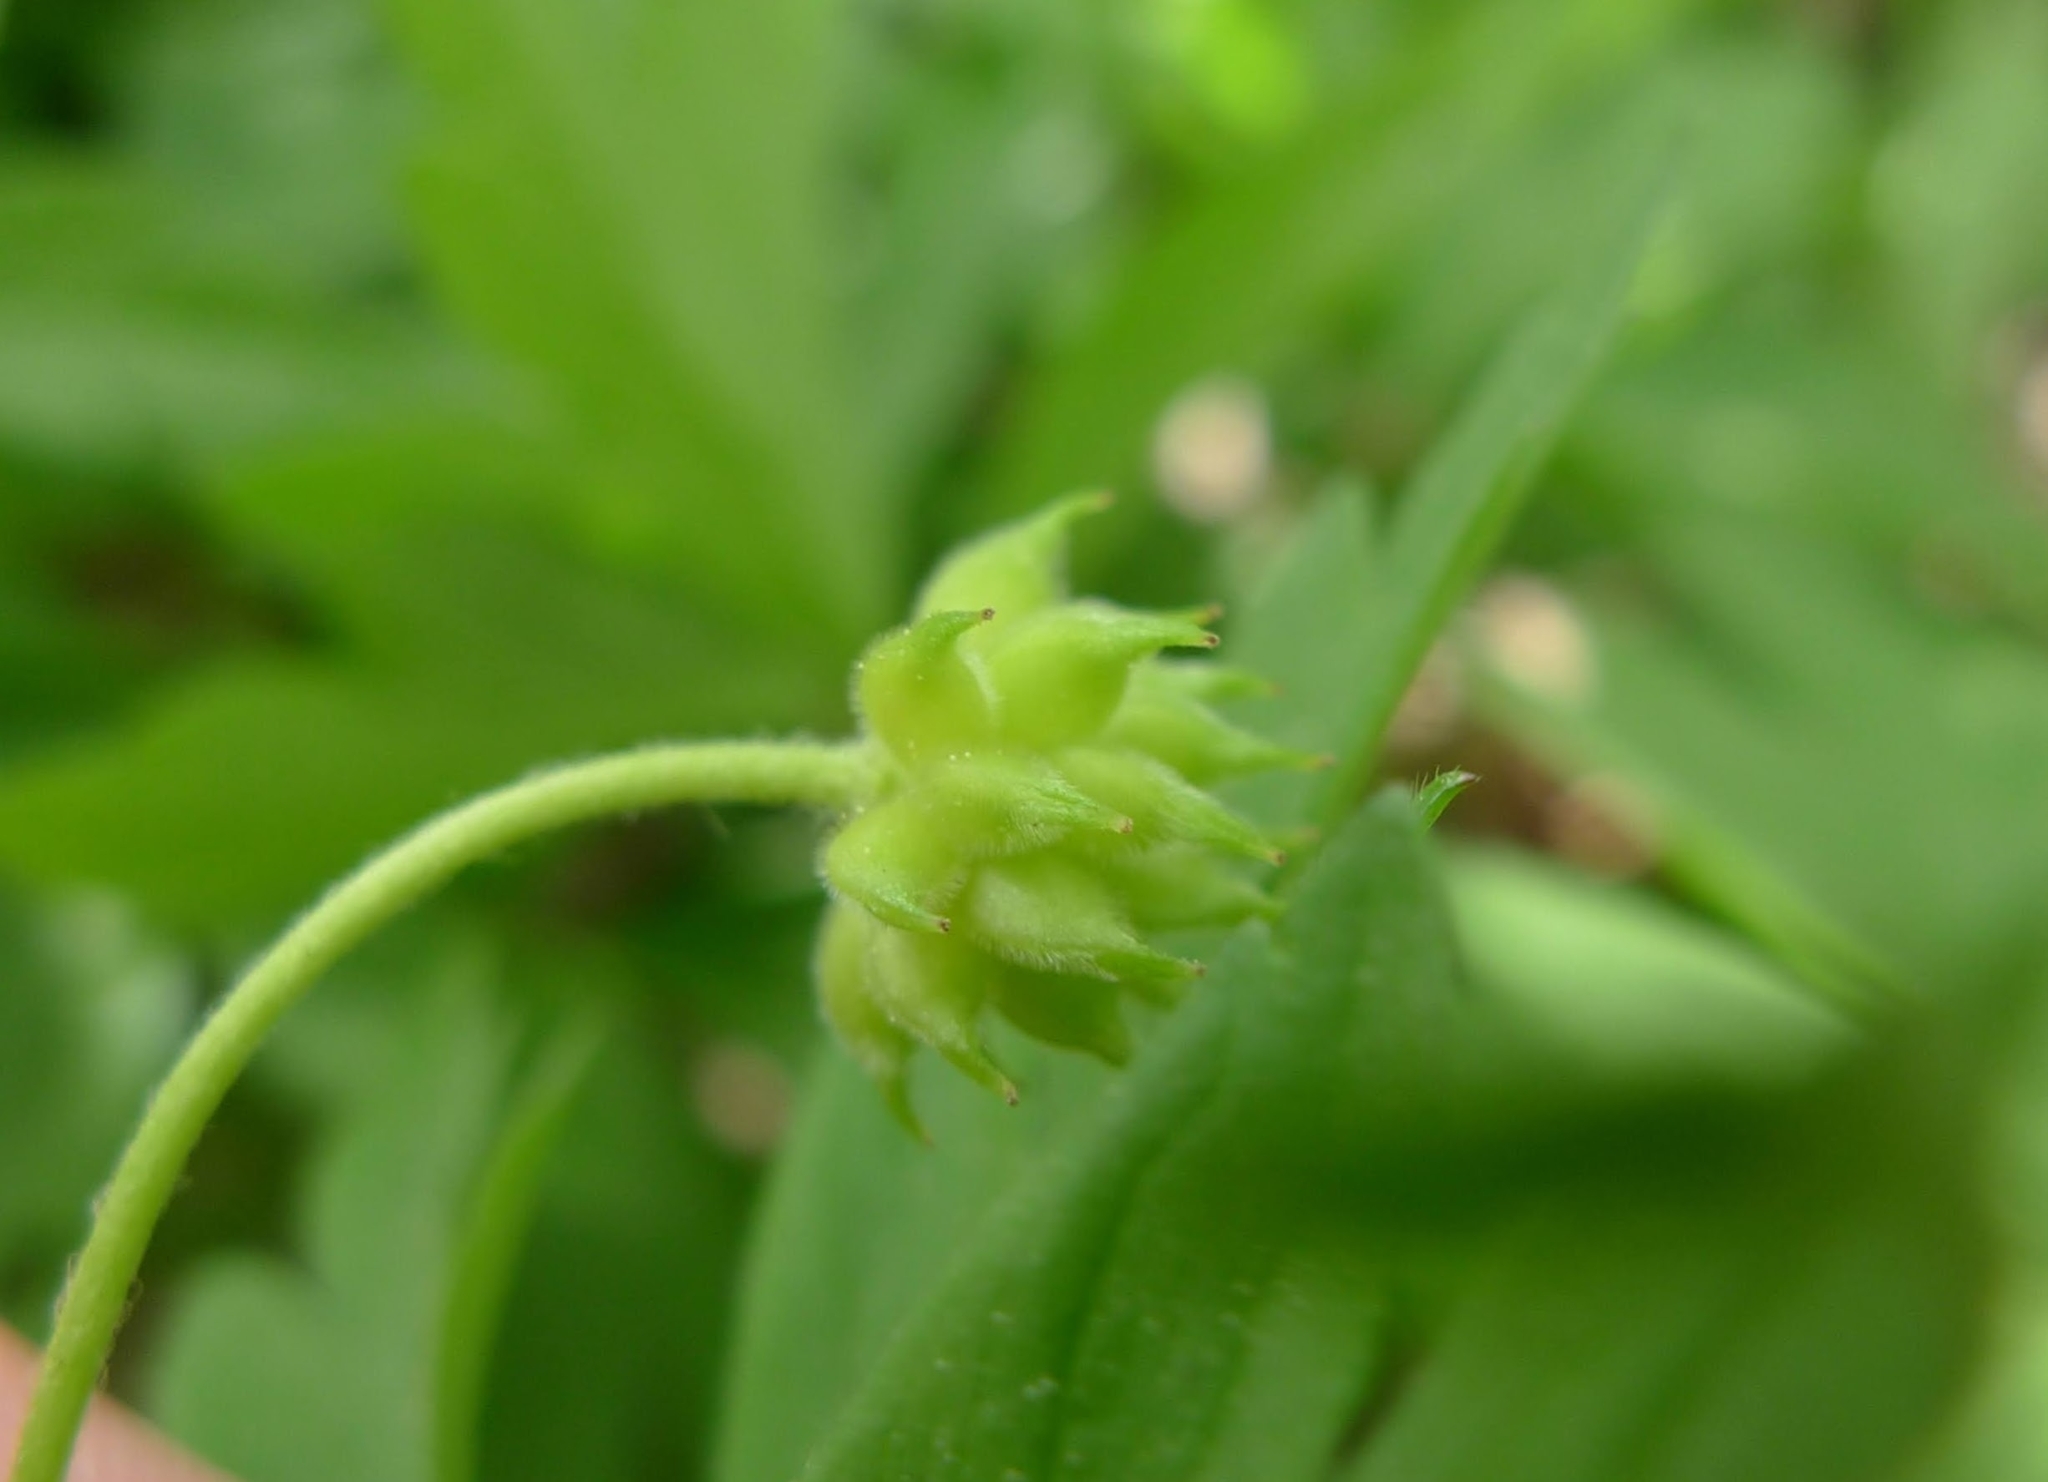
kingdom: Plantae
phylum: Tracheophyta
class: Magnoliopsida
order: Ranunculales
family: Ranunculaceae
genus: Anemone
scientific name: Anemone nemorosa
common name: Wood anemone
